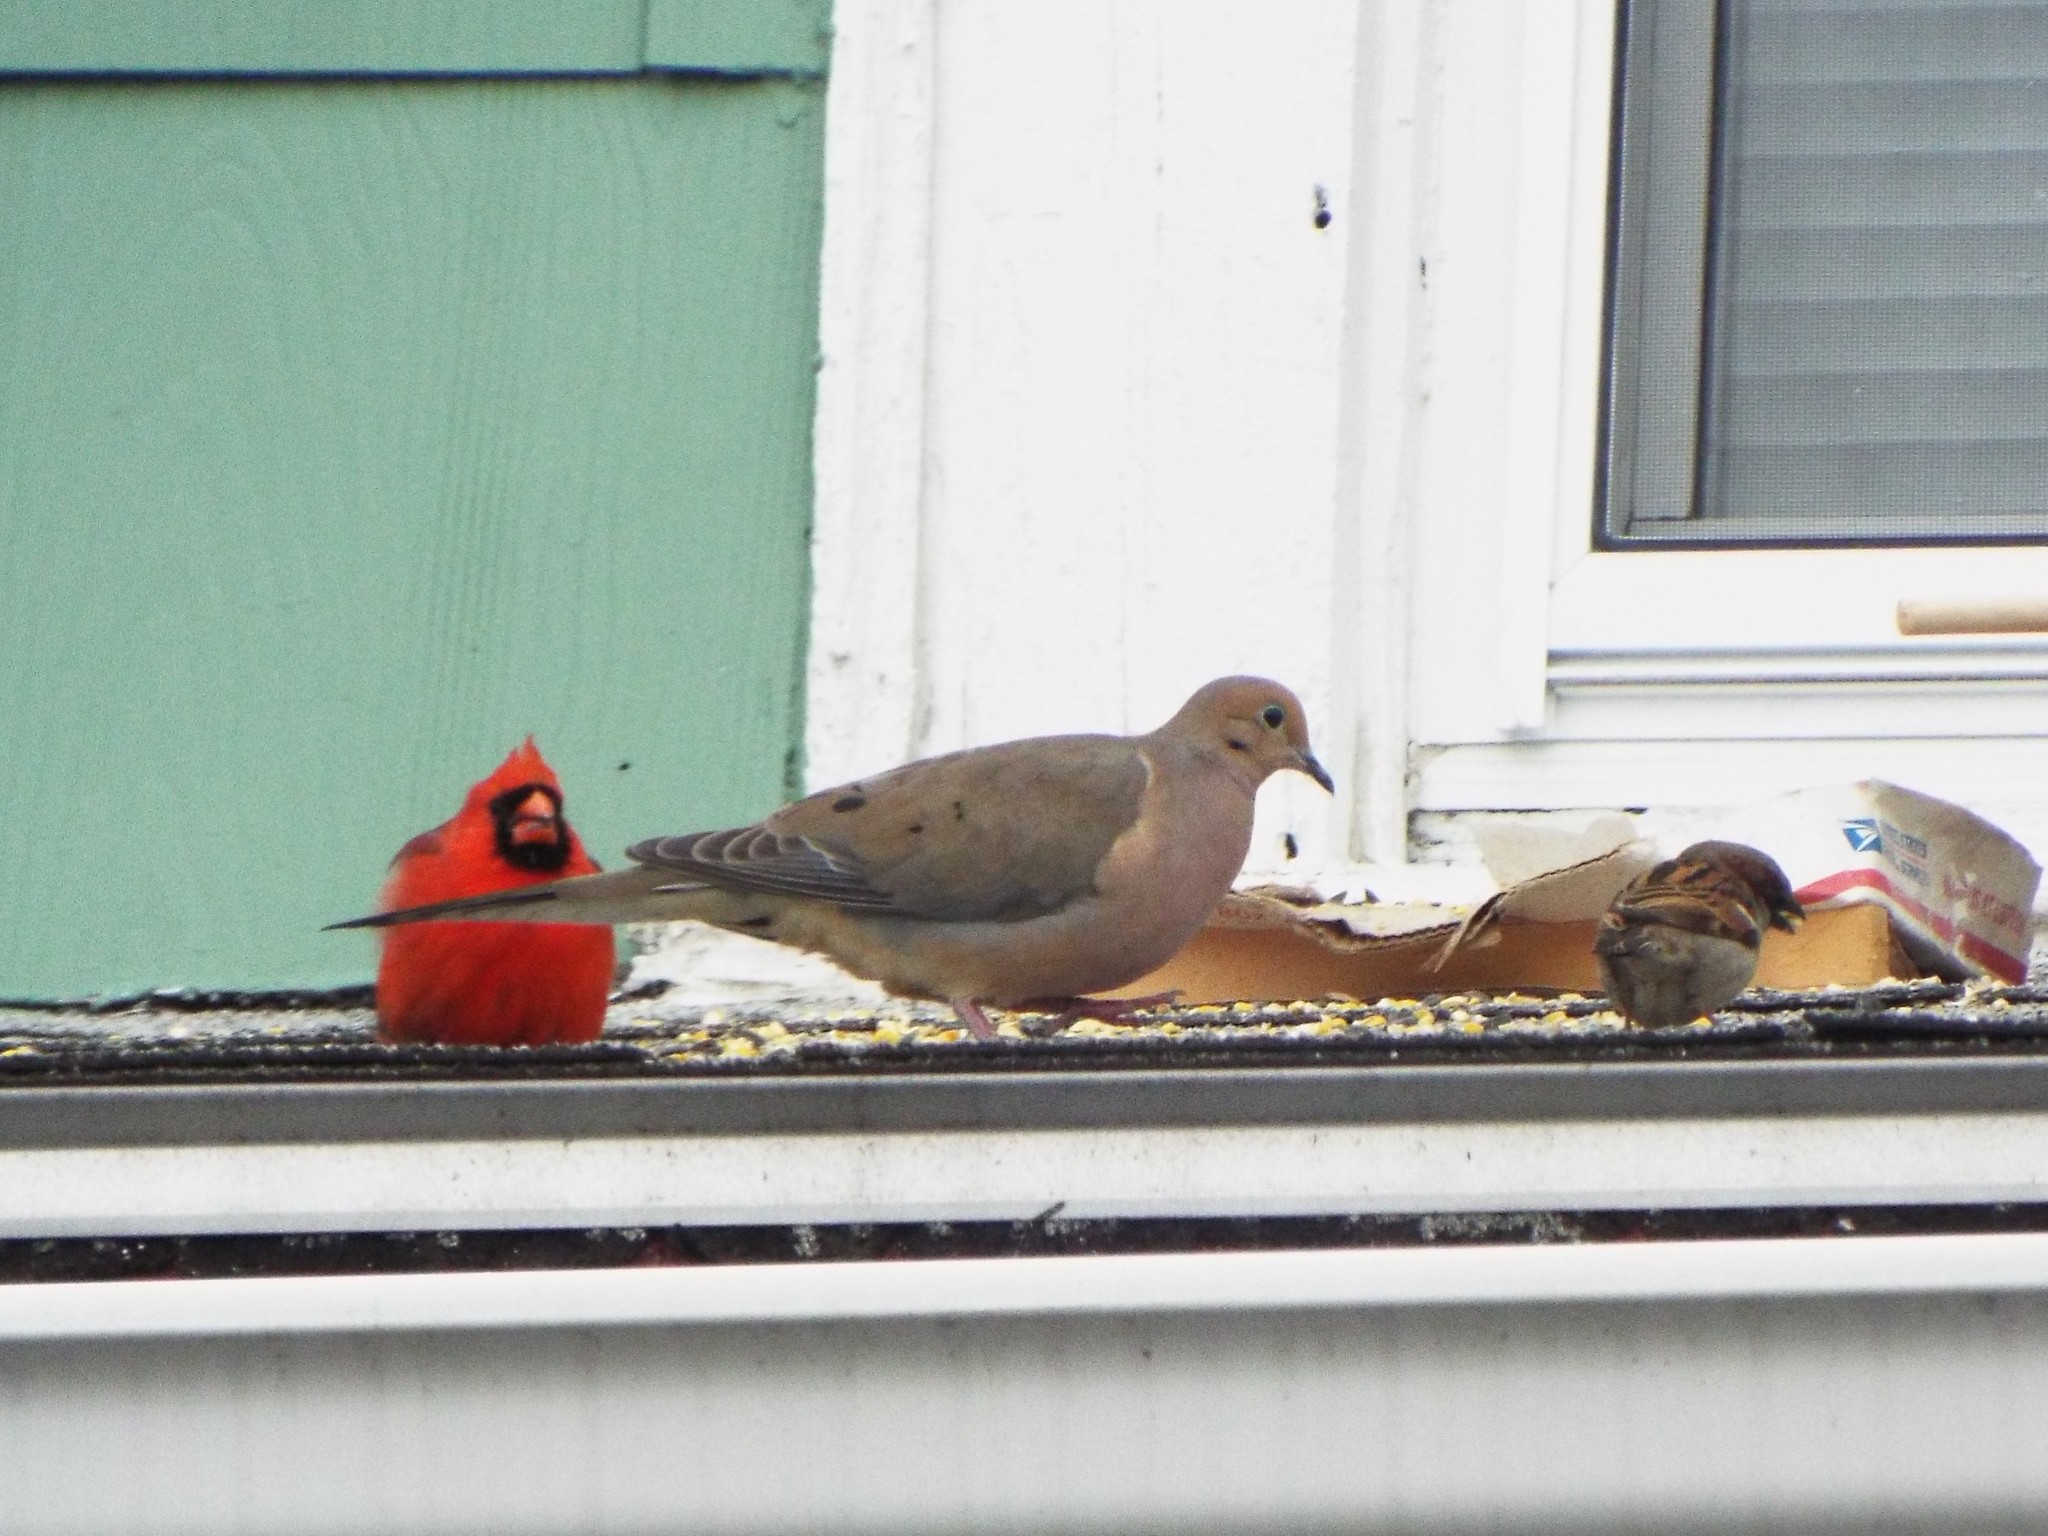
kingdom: Animalia
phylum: Chordata
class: Aves
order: Columbiformes
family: Columbidae
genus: Zenaida
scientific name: Zenaida macroura
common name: Mourning dove
